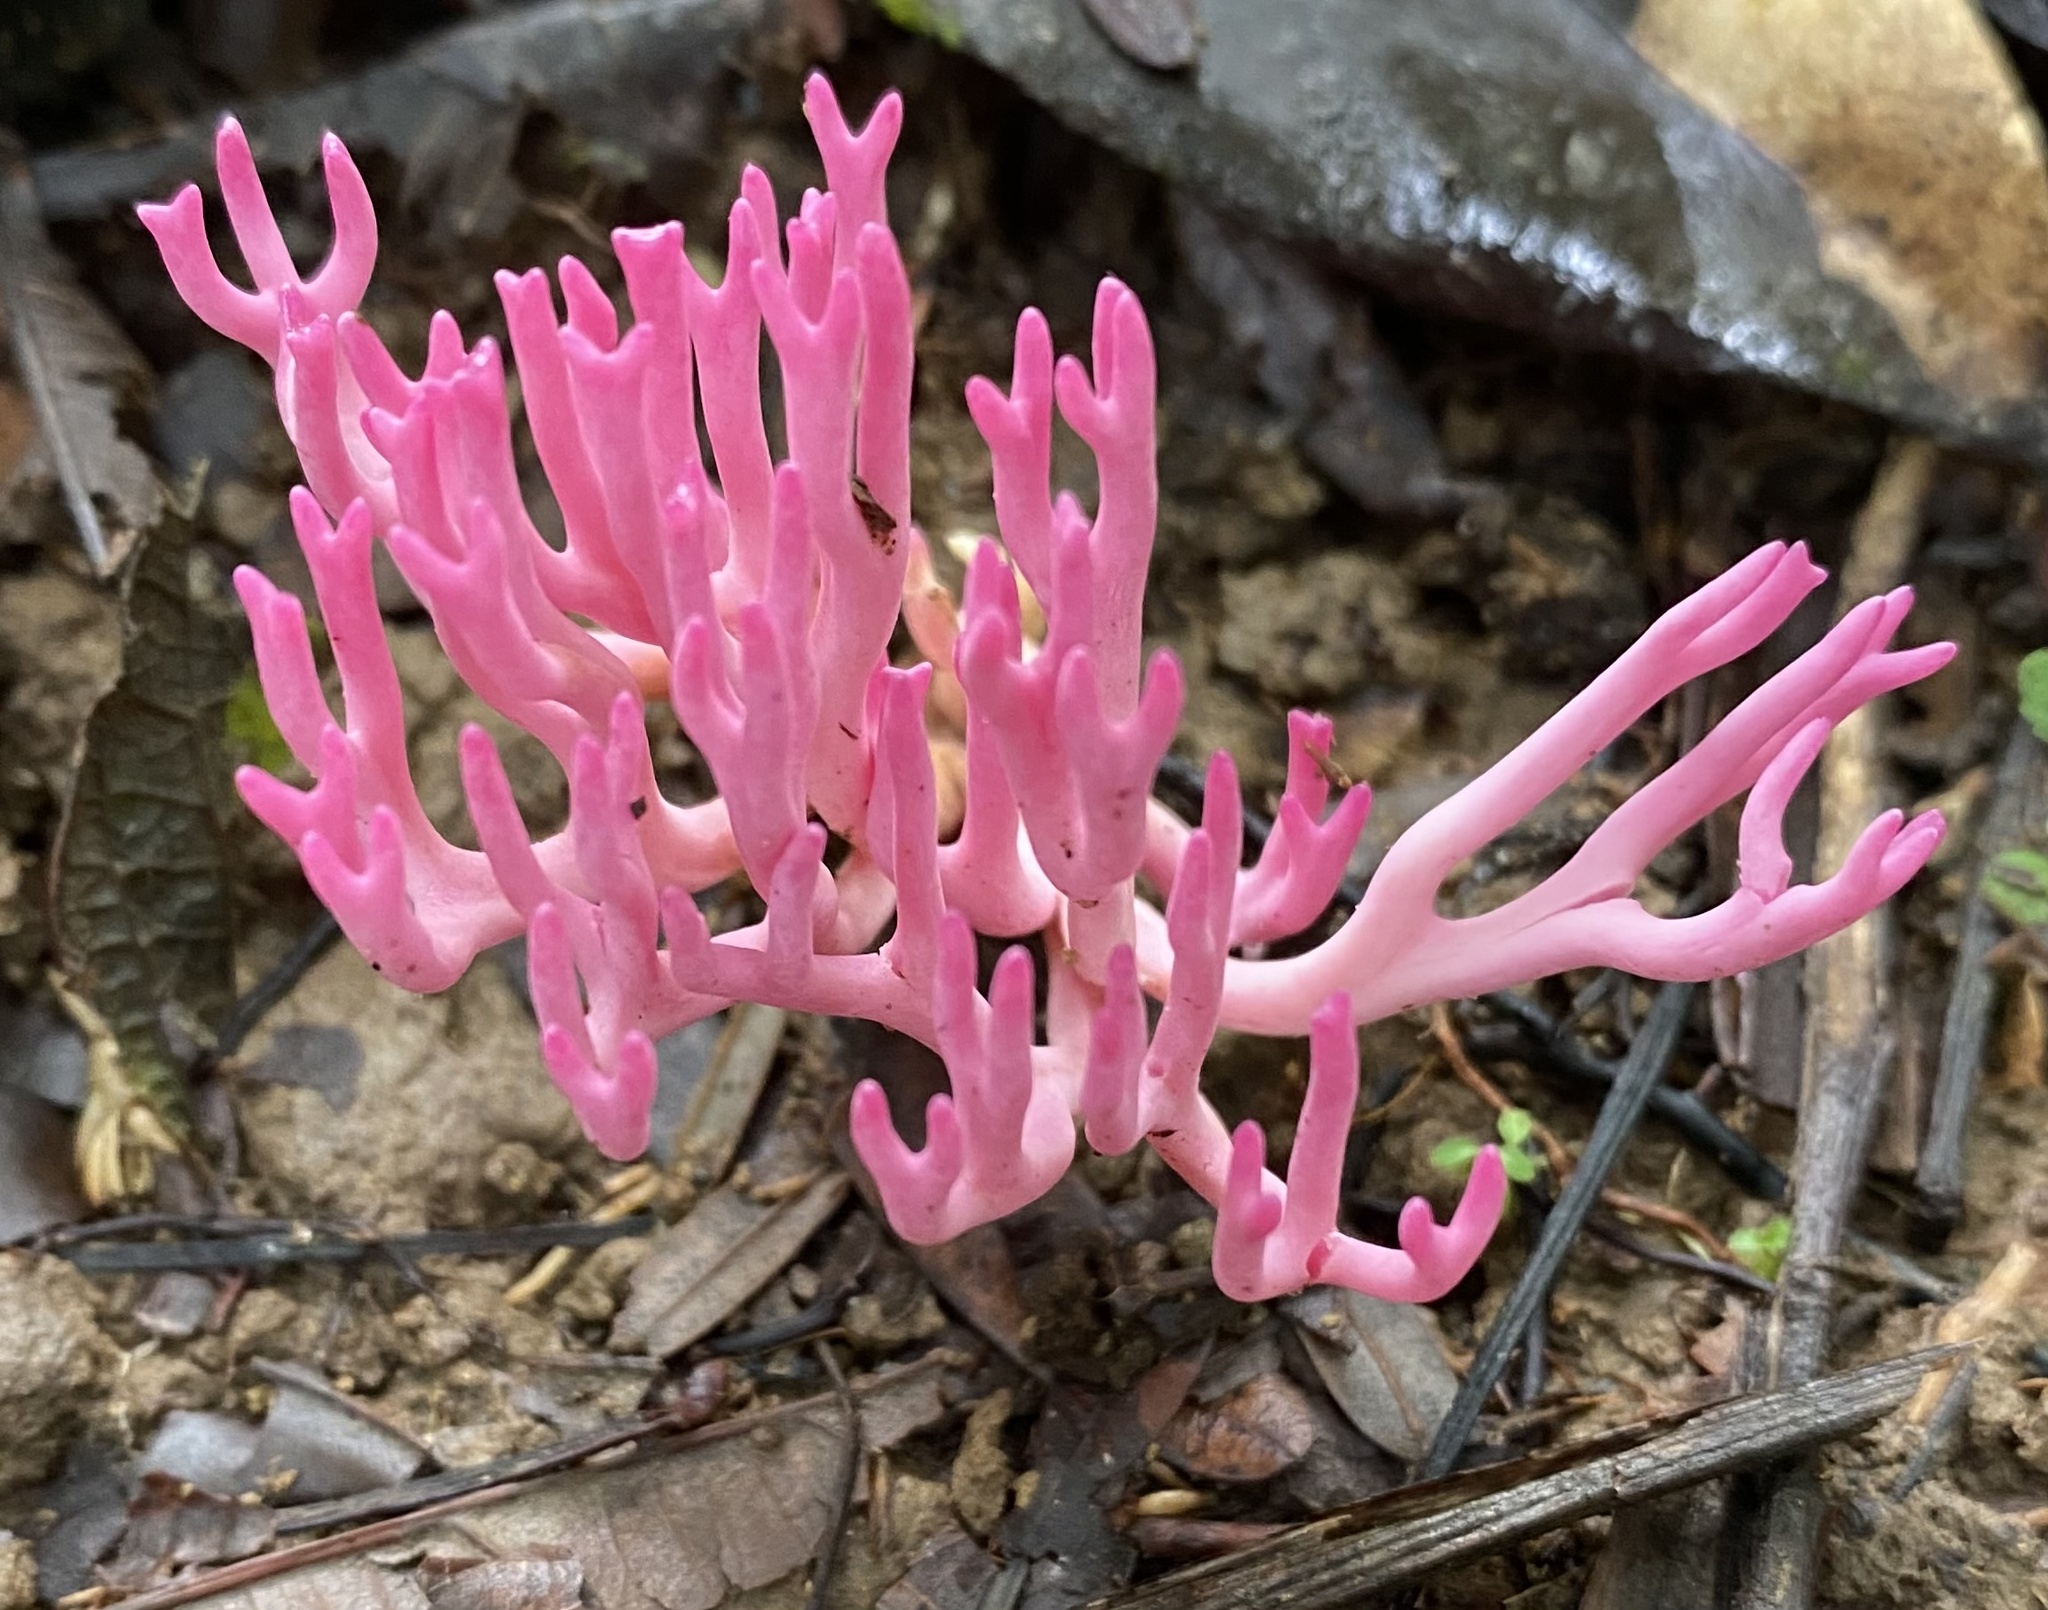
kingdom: Fungi
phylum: Basidiomycota
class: Agaricomycetes
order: Agaricales
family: Clavariaceae
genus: Clavaria
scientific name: Clavaria zollingeri
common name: Violet coral
